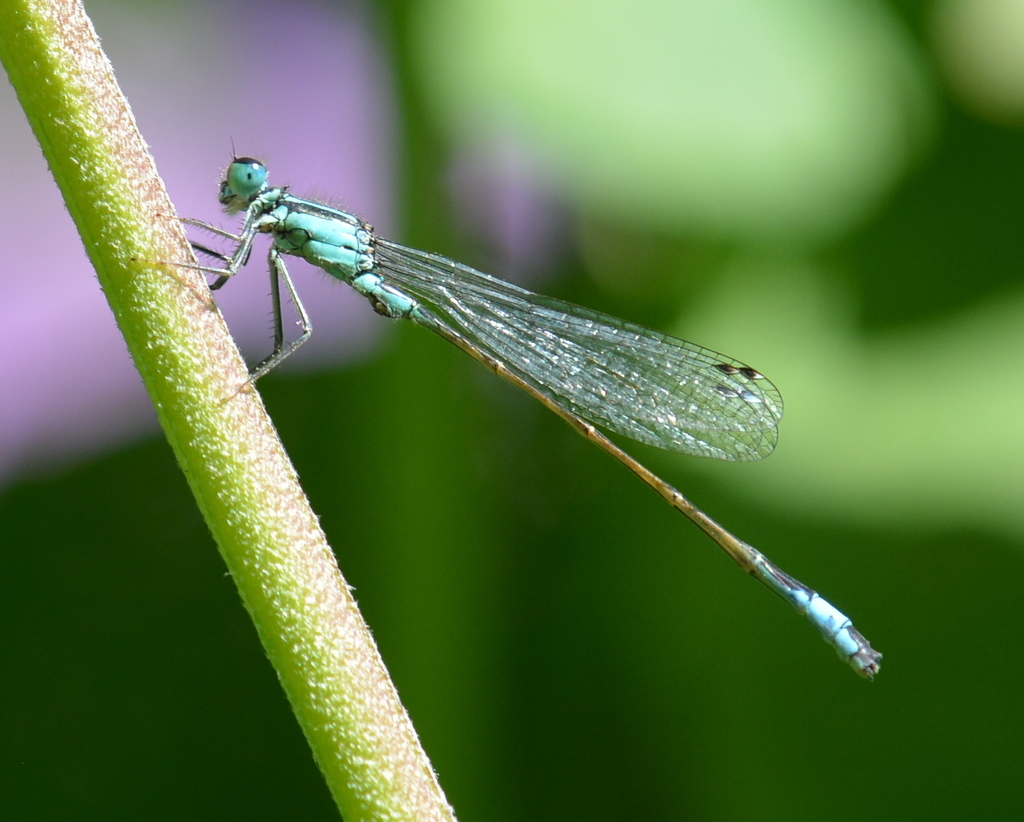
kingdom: Animalia
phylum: Arthropoda
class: Insecta
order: Odonata
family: Coenagrionidae
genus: Ischnura
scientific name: Ischnura elegans
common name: Blue-tailed damselfly
